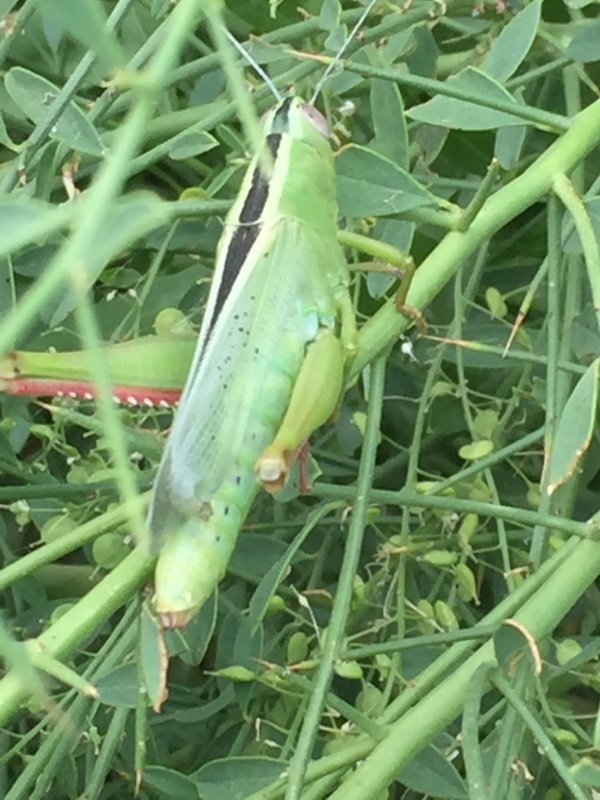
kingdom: Animalia
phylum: Arthropoda
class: Insecta
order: Orthoptera
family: Acrididae
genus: Heteracris
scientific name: Heteracris pterosticha
